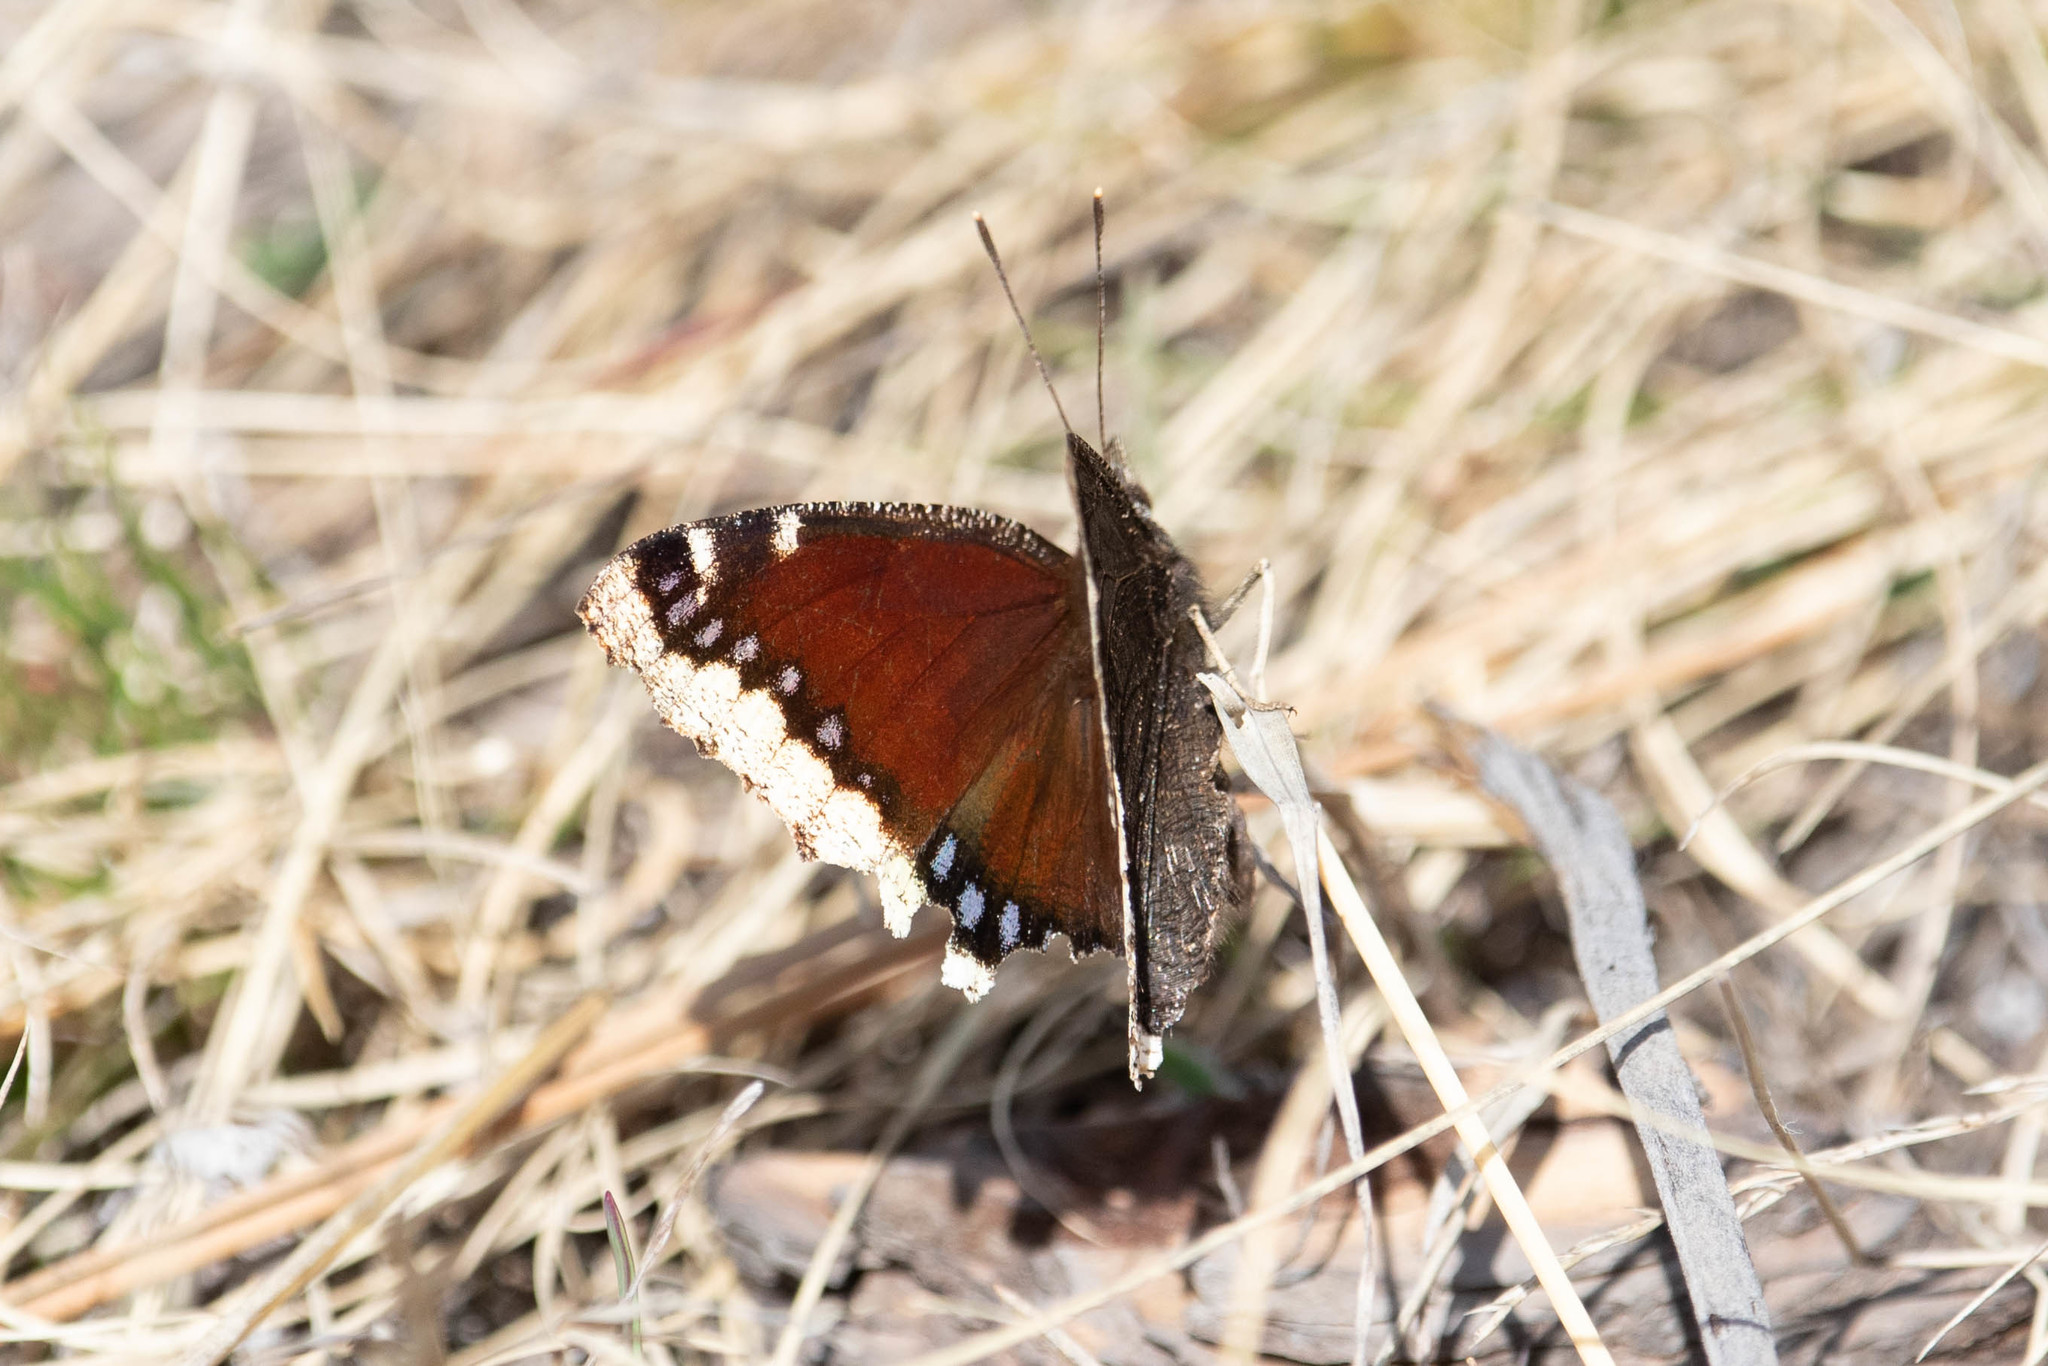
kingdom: Animalia
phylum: Arthropoda
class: Insecta
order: Lepidoptera
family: Nymphalidae
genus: Nymphalis
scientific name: Nymphalis antiopa
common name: Camberwell beauty
